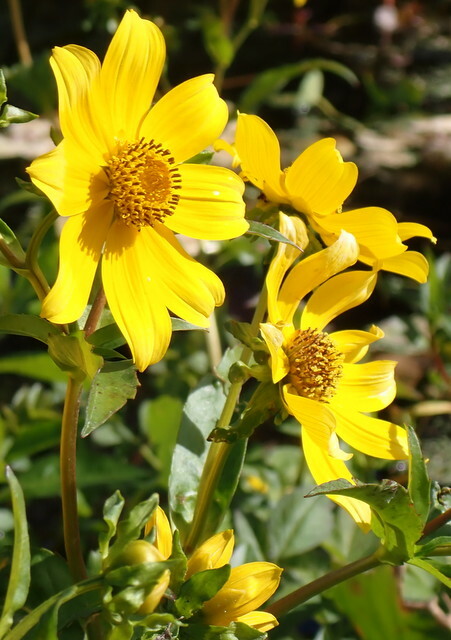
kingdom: Plantae
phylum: Tracheophyta
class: Magnoliopsida
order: Asterales
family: Asteraceae
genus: Bidens
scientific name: Bidens laevis
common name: Larger bur-marigold
